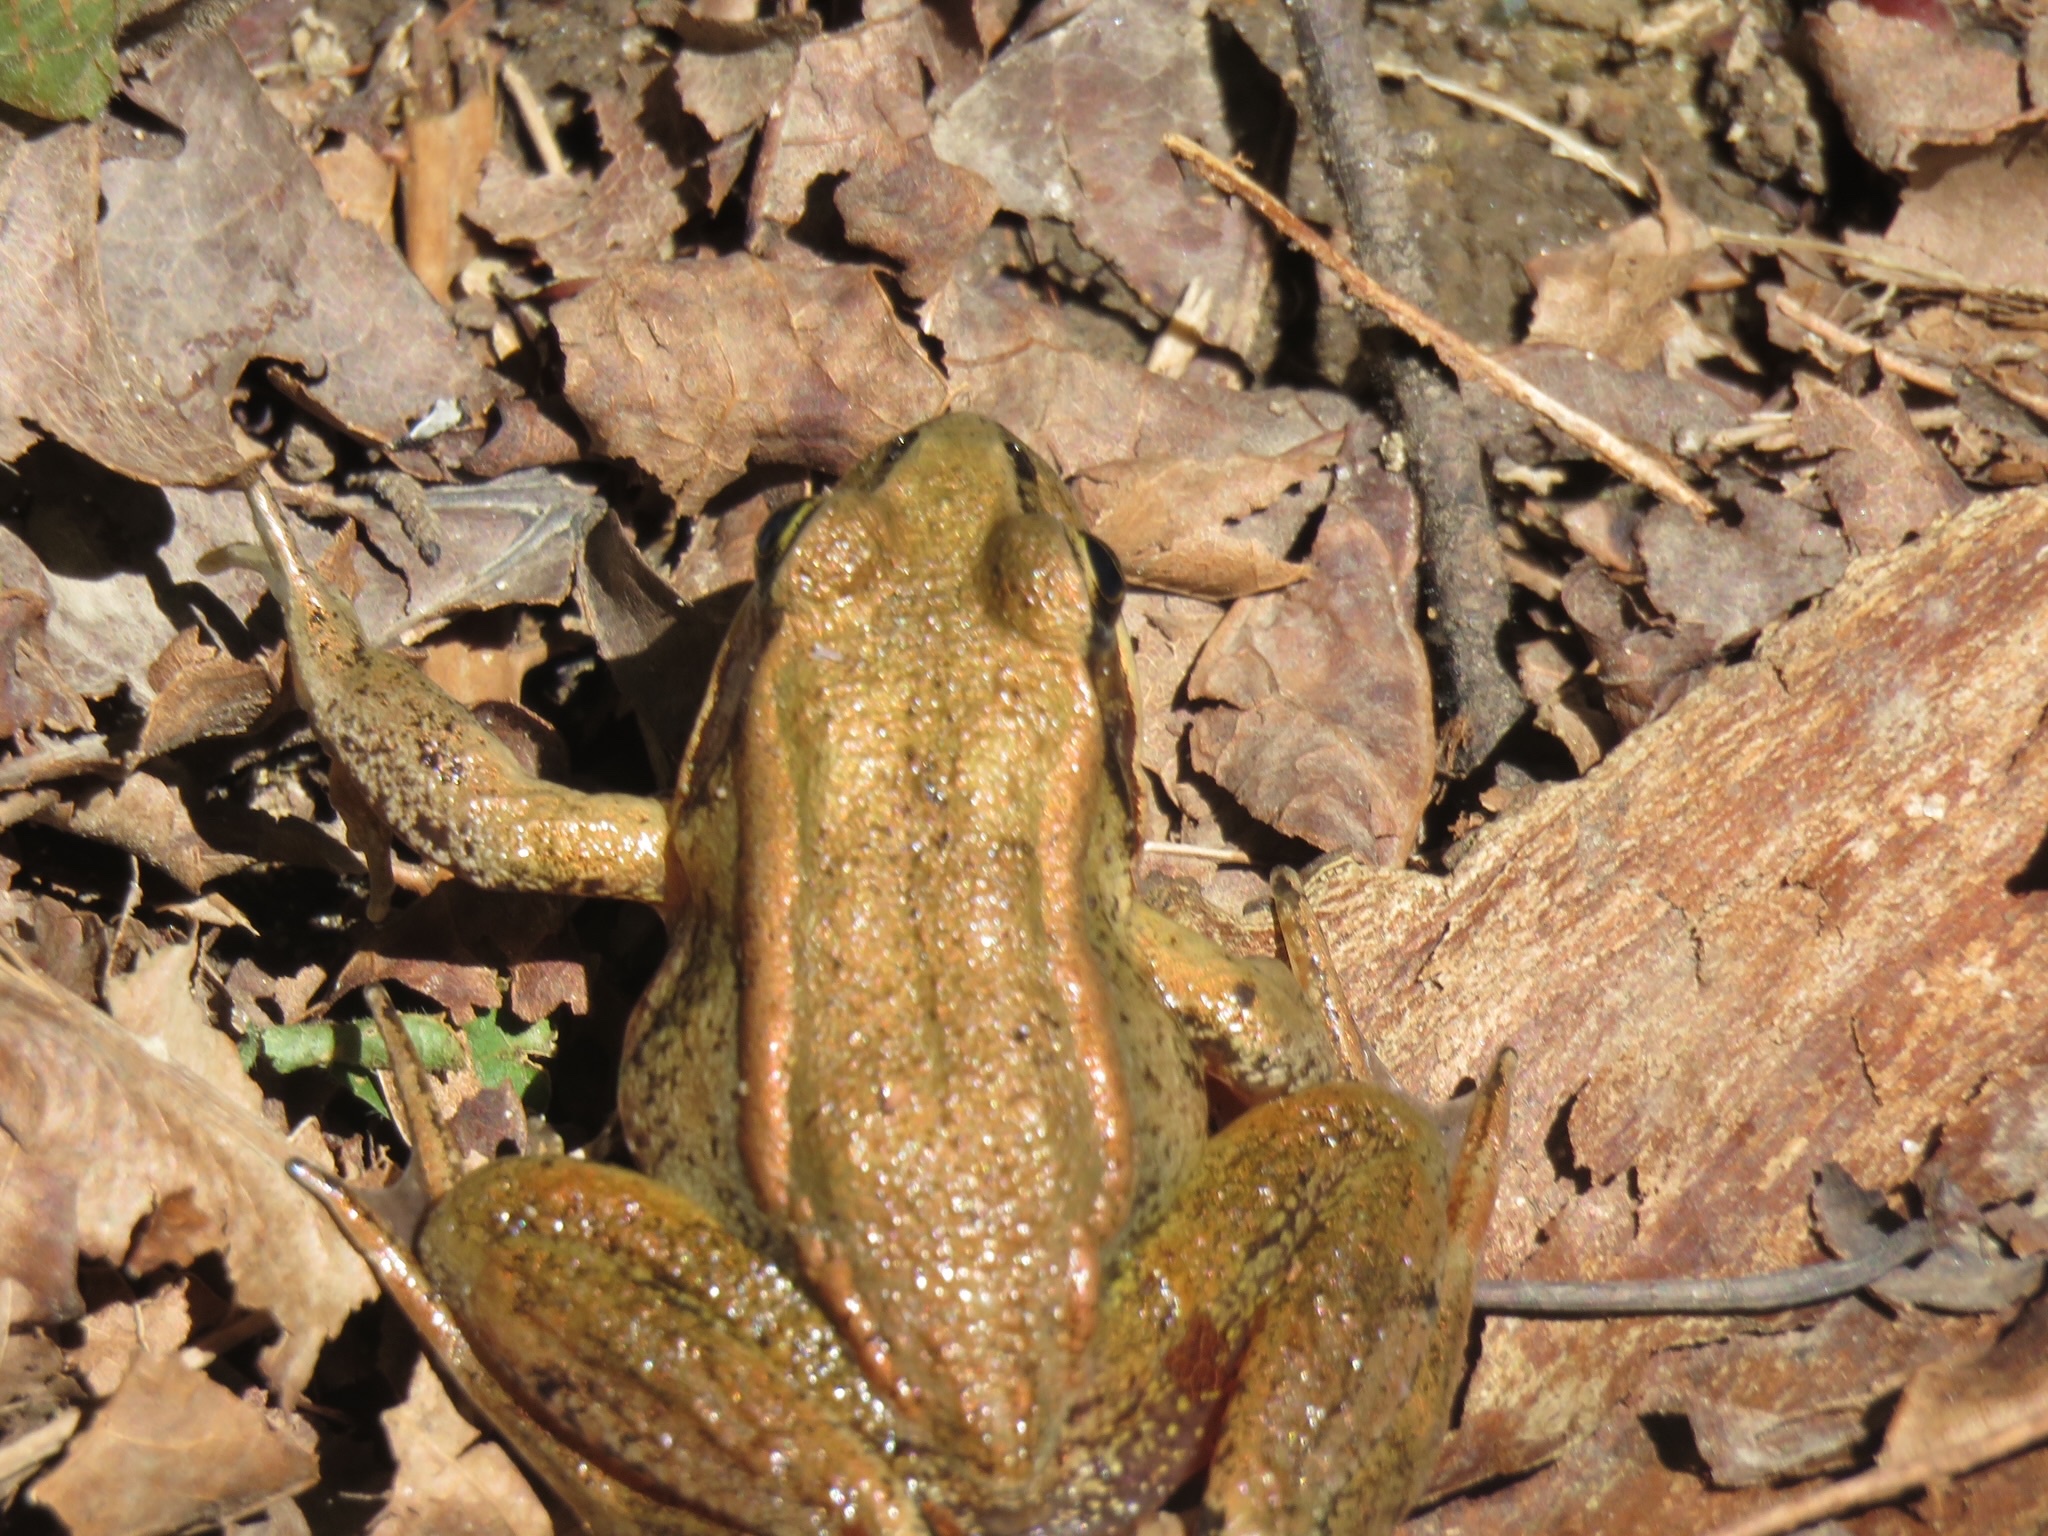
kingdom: Animalia
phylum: Chordata
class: Amphibia
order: Anura
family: Ranidae
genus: Rana
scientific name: Rana aurora
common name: Red-legged frog
